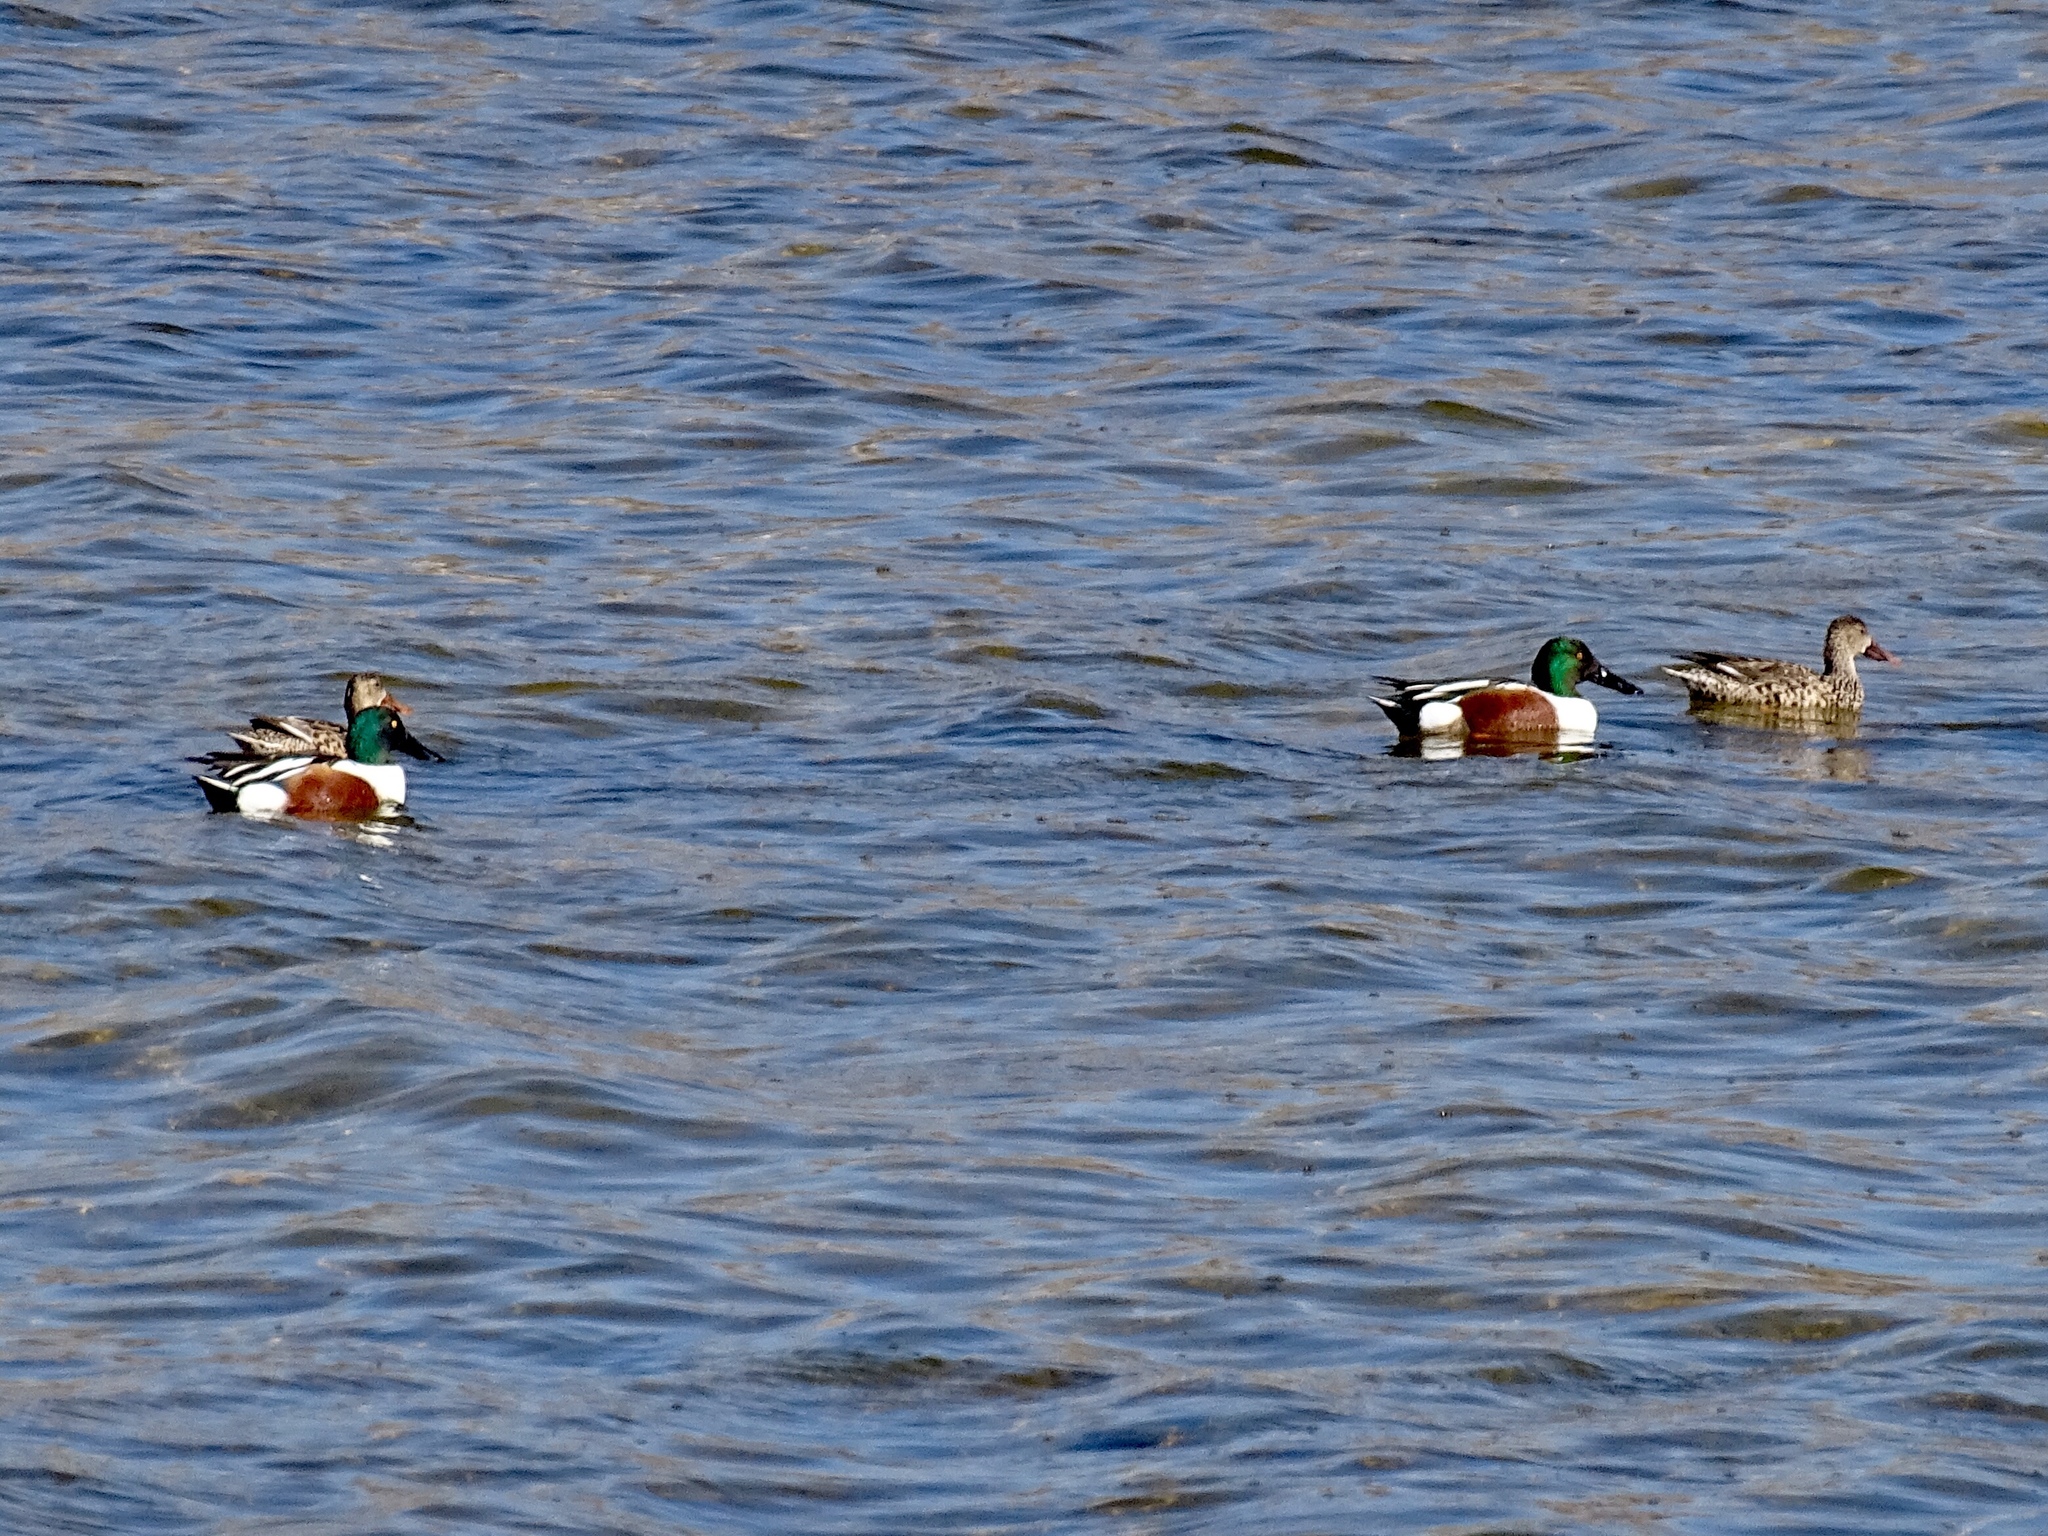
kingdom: Animalia
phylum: Chordata
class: Aves
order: Anseriformes
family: Anatidae
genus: Spatula
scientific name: Spatula clypeata
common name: Northern shoveler
